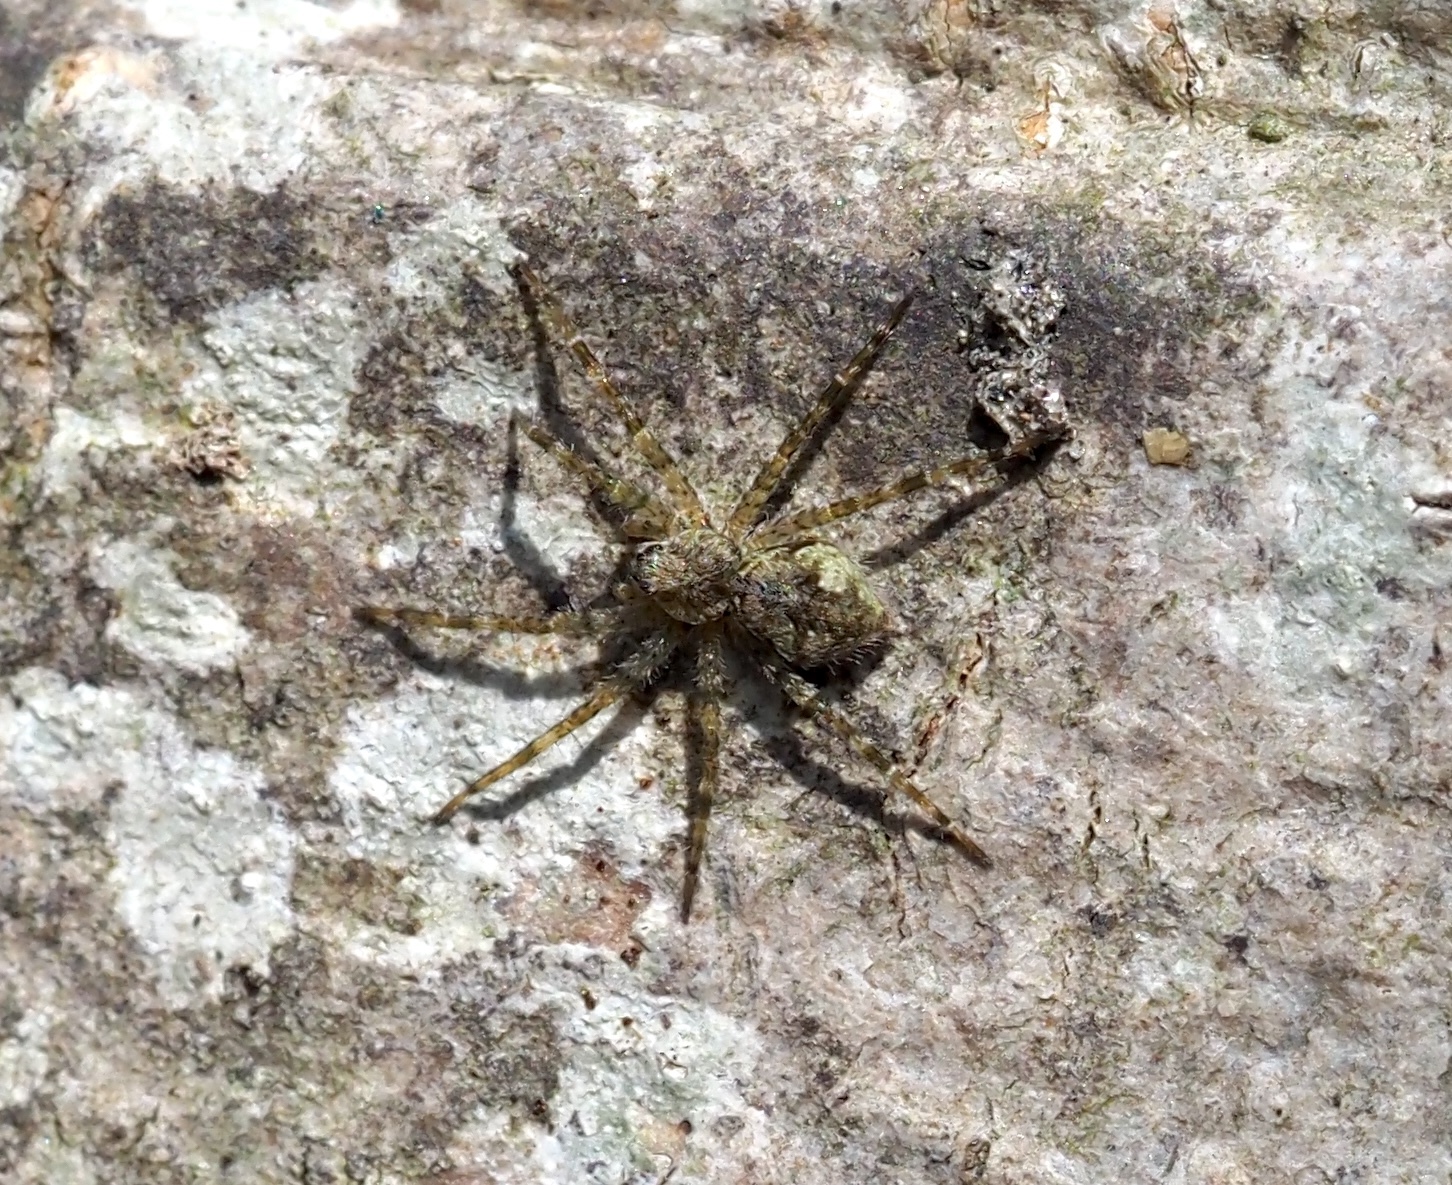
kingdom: Animalia
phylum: Arthropoda
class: Arachnida
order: Araneae
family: Pisauridae
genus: Dolomedes
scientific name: Dolomedes albineus
